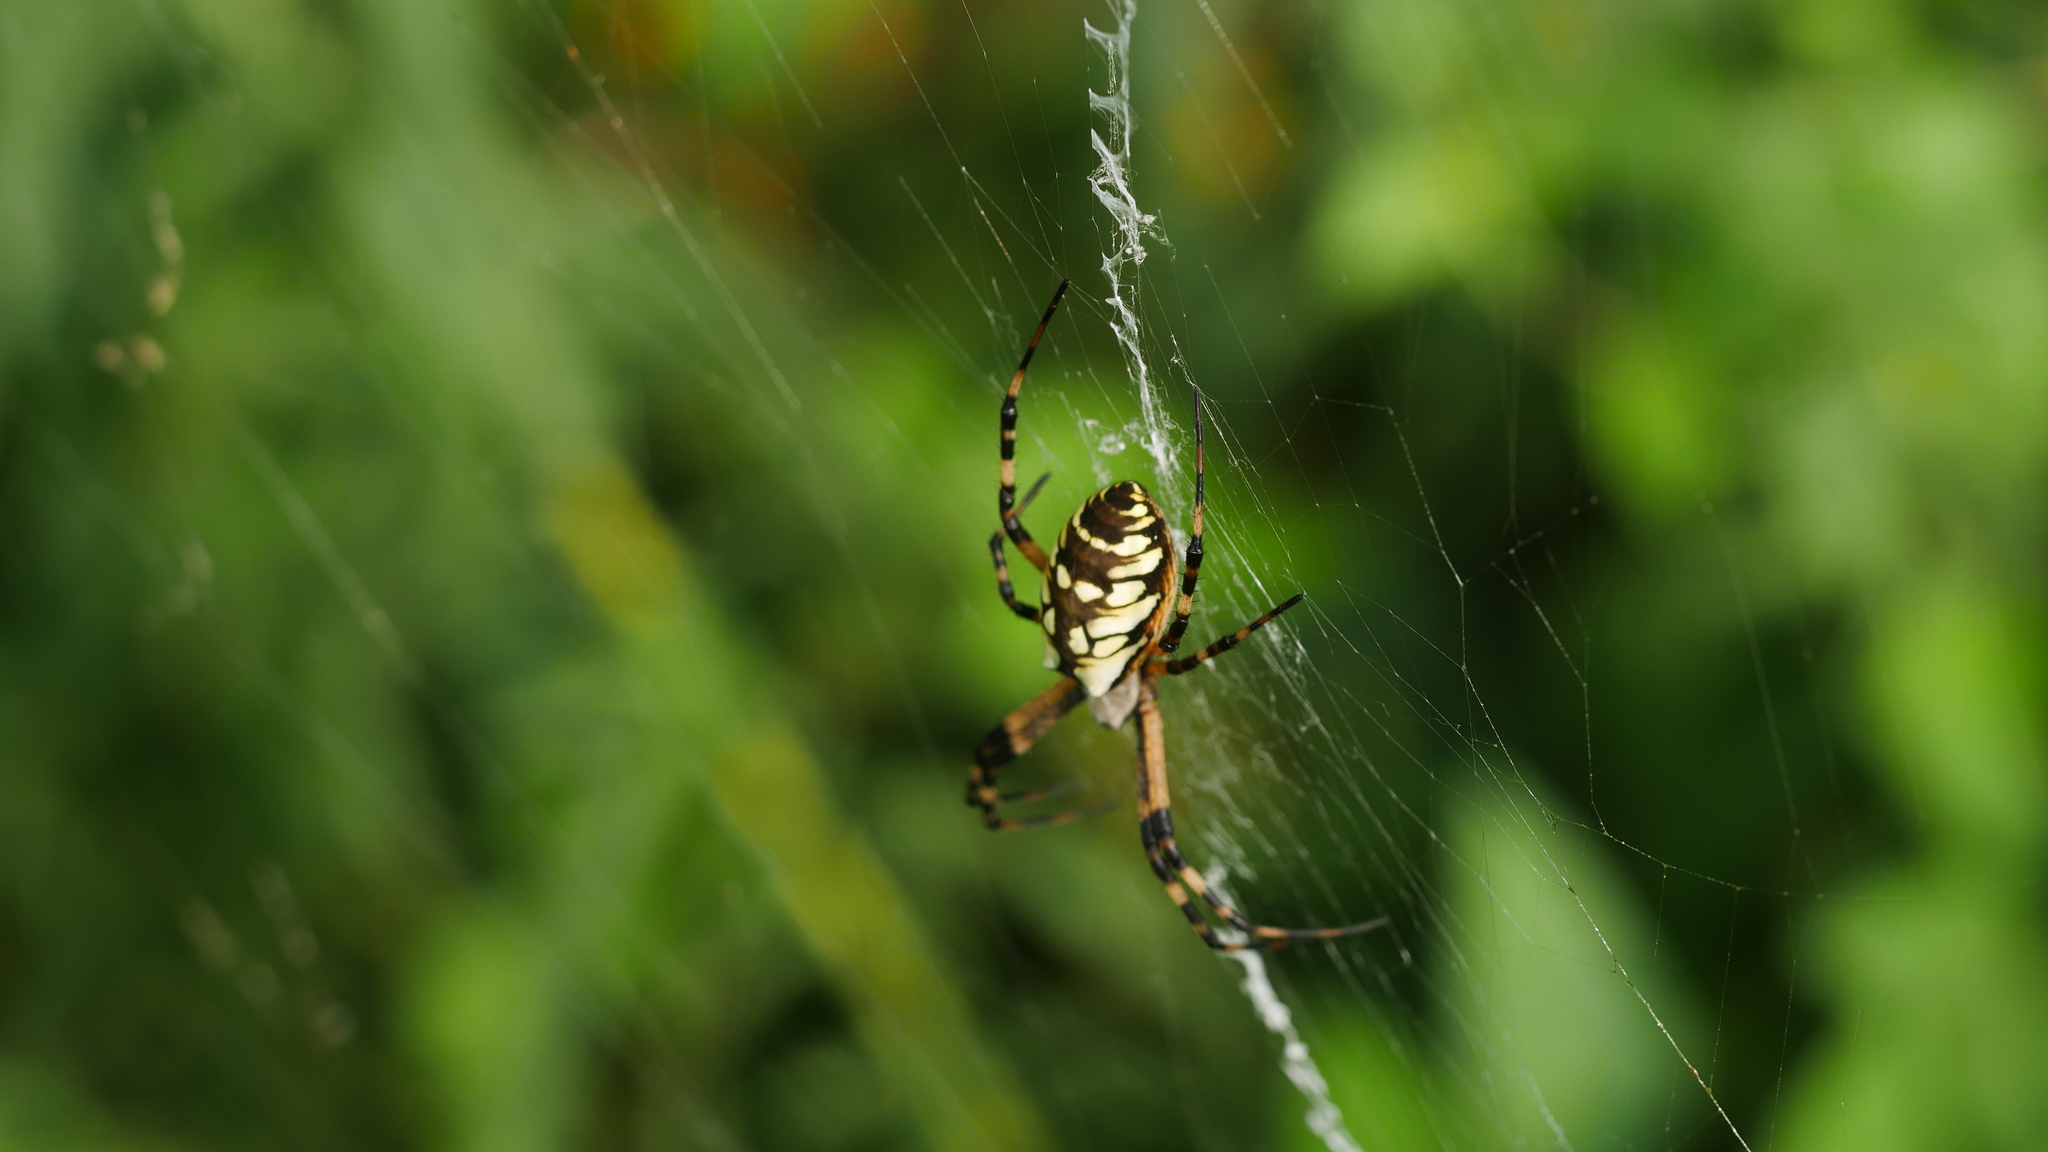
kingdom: Animalia
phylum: Arthropoda
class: Arachnida
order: Araneae
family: Araneidae
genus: Argiope
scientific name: Argiope aurantia
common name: Orb weavers
